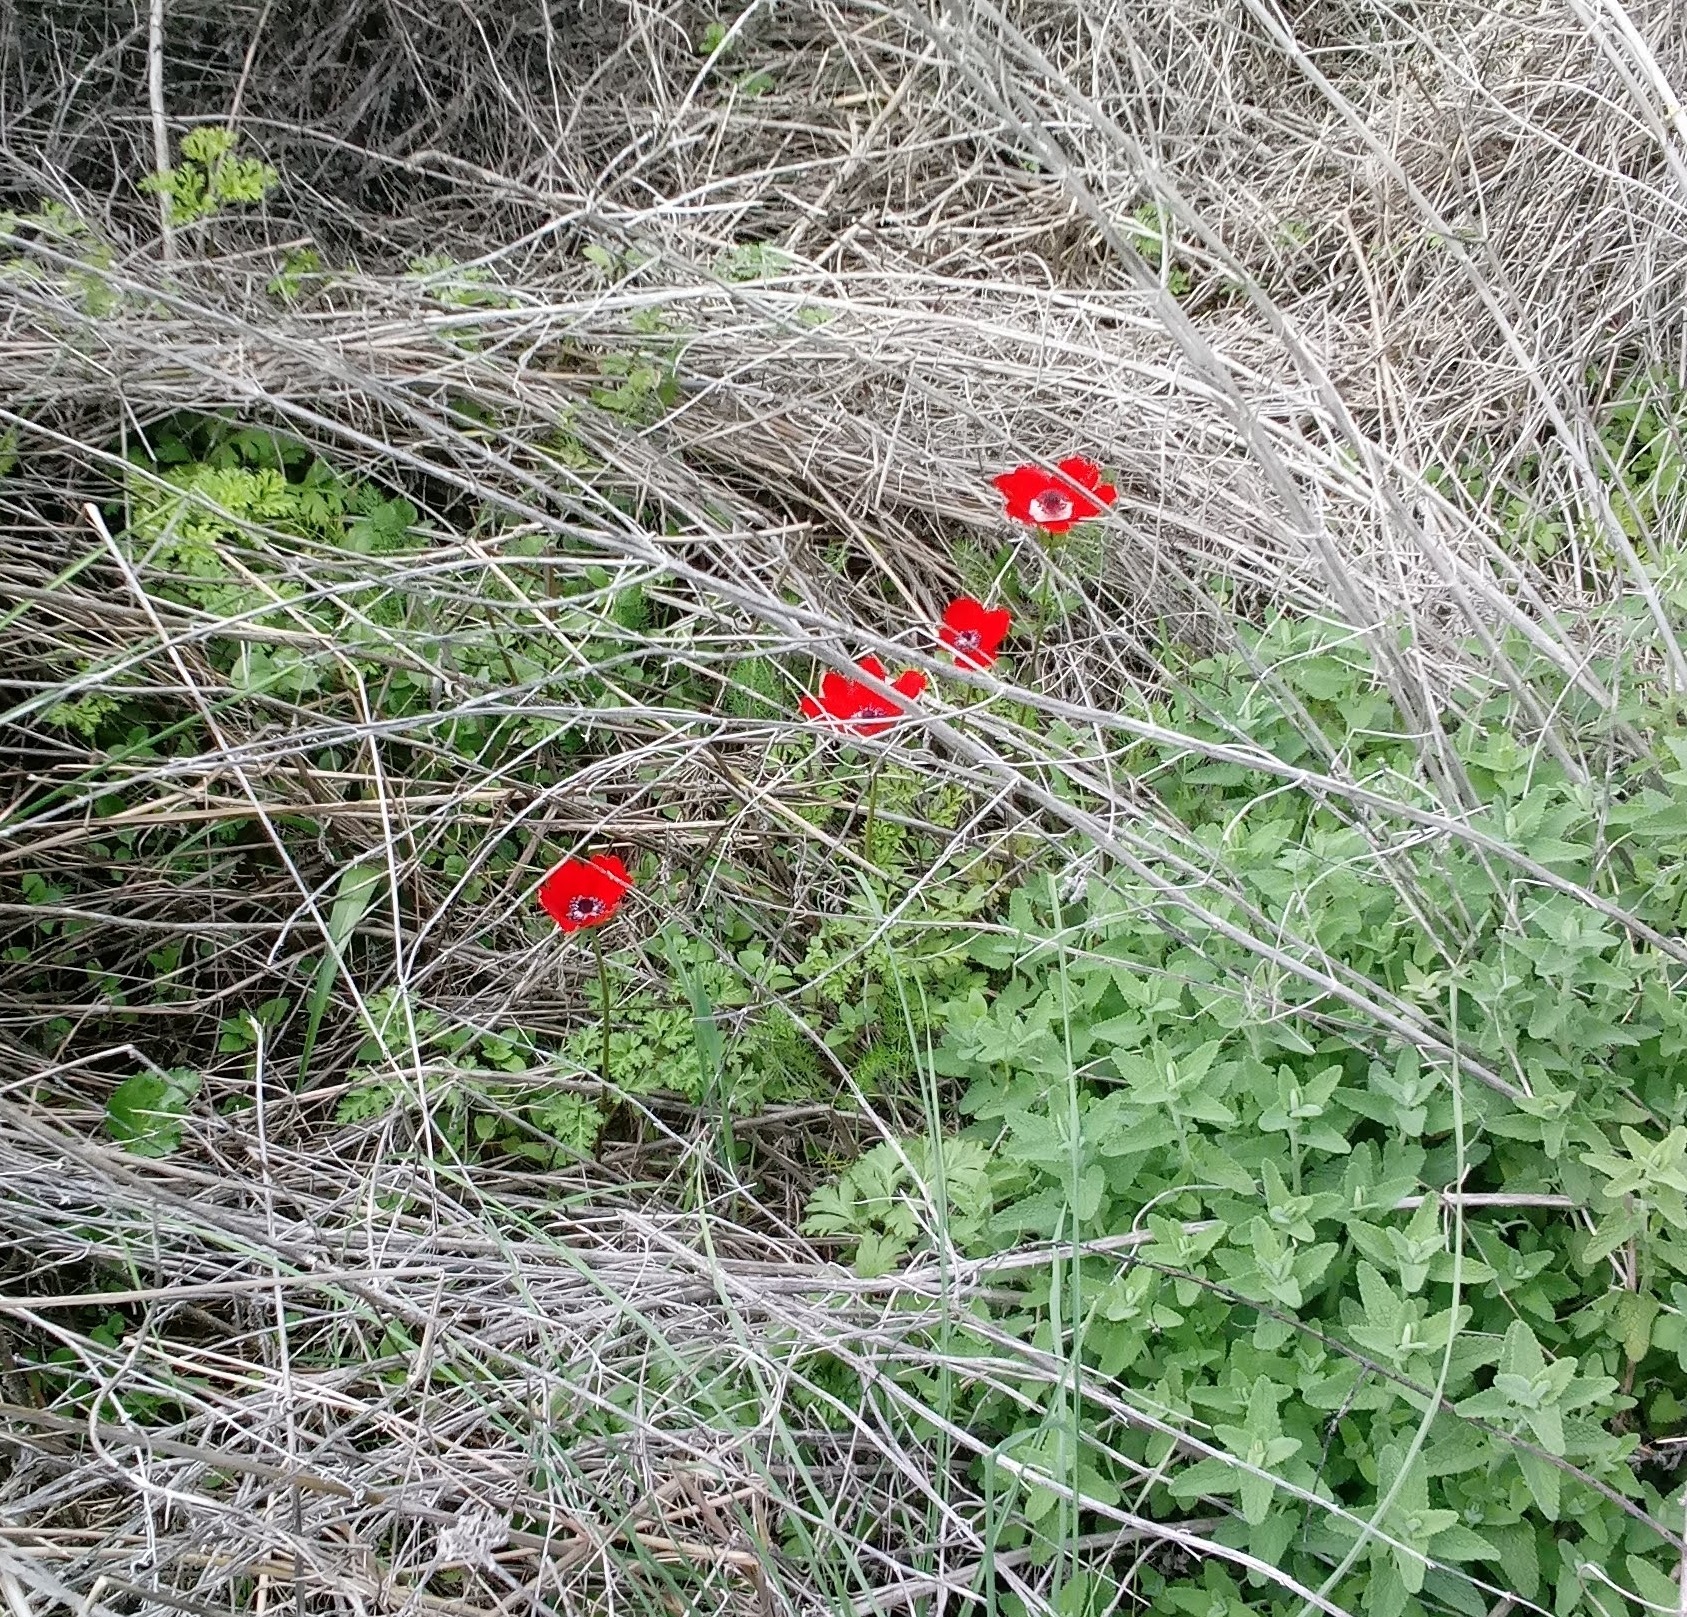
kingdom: Plantae
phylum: Tracheophyta
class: Magnoliopsida
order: Ranunculales
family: Ranunculaceae
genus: Anemone
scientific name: Anemone coronaria
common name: Poppy anemone
